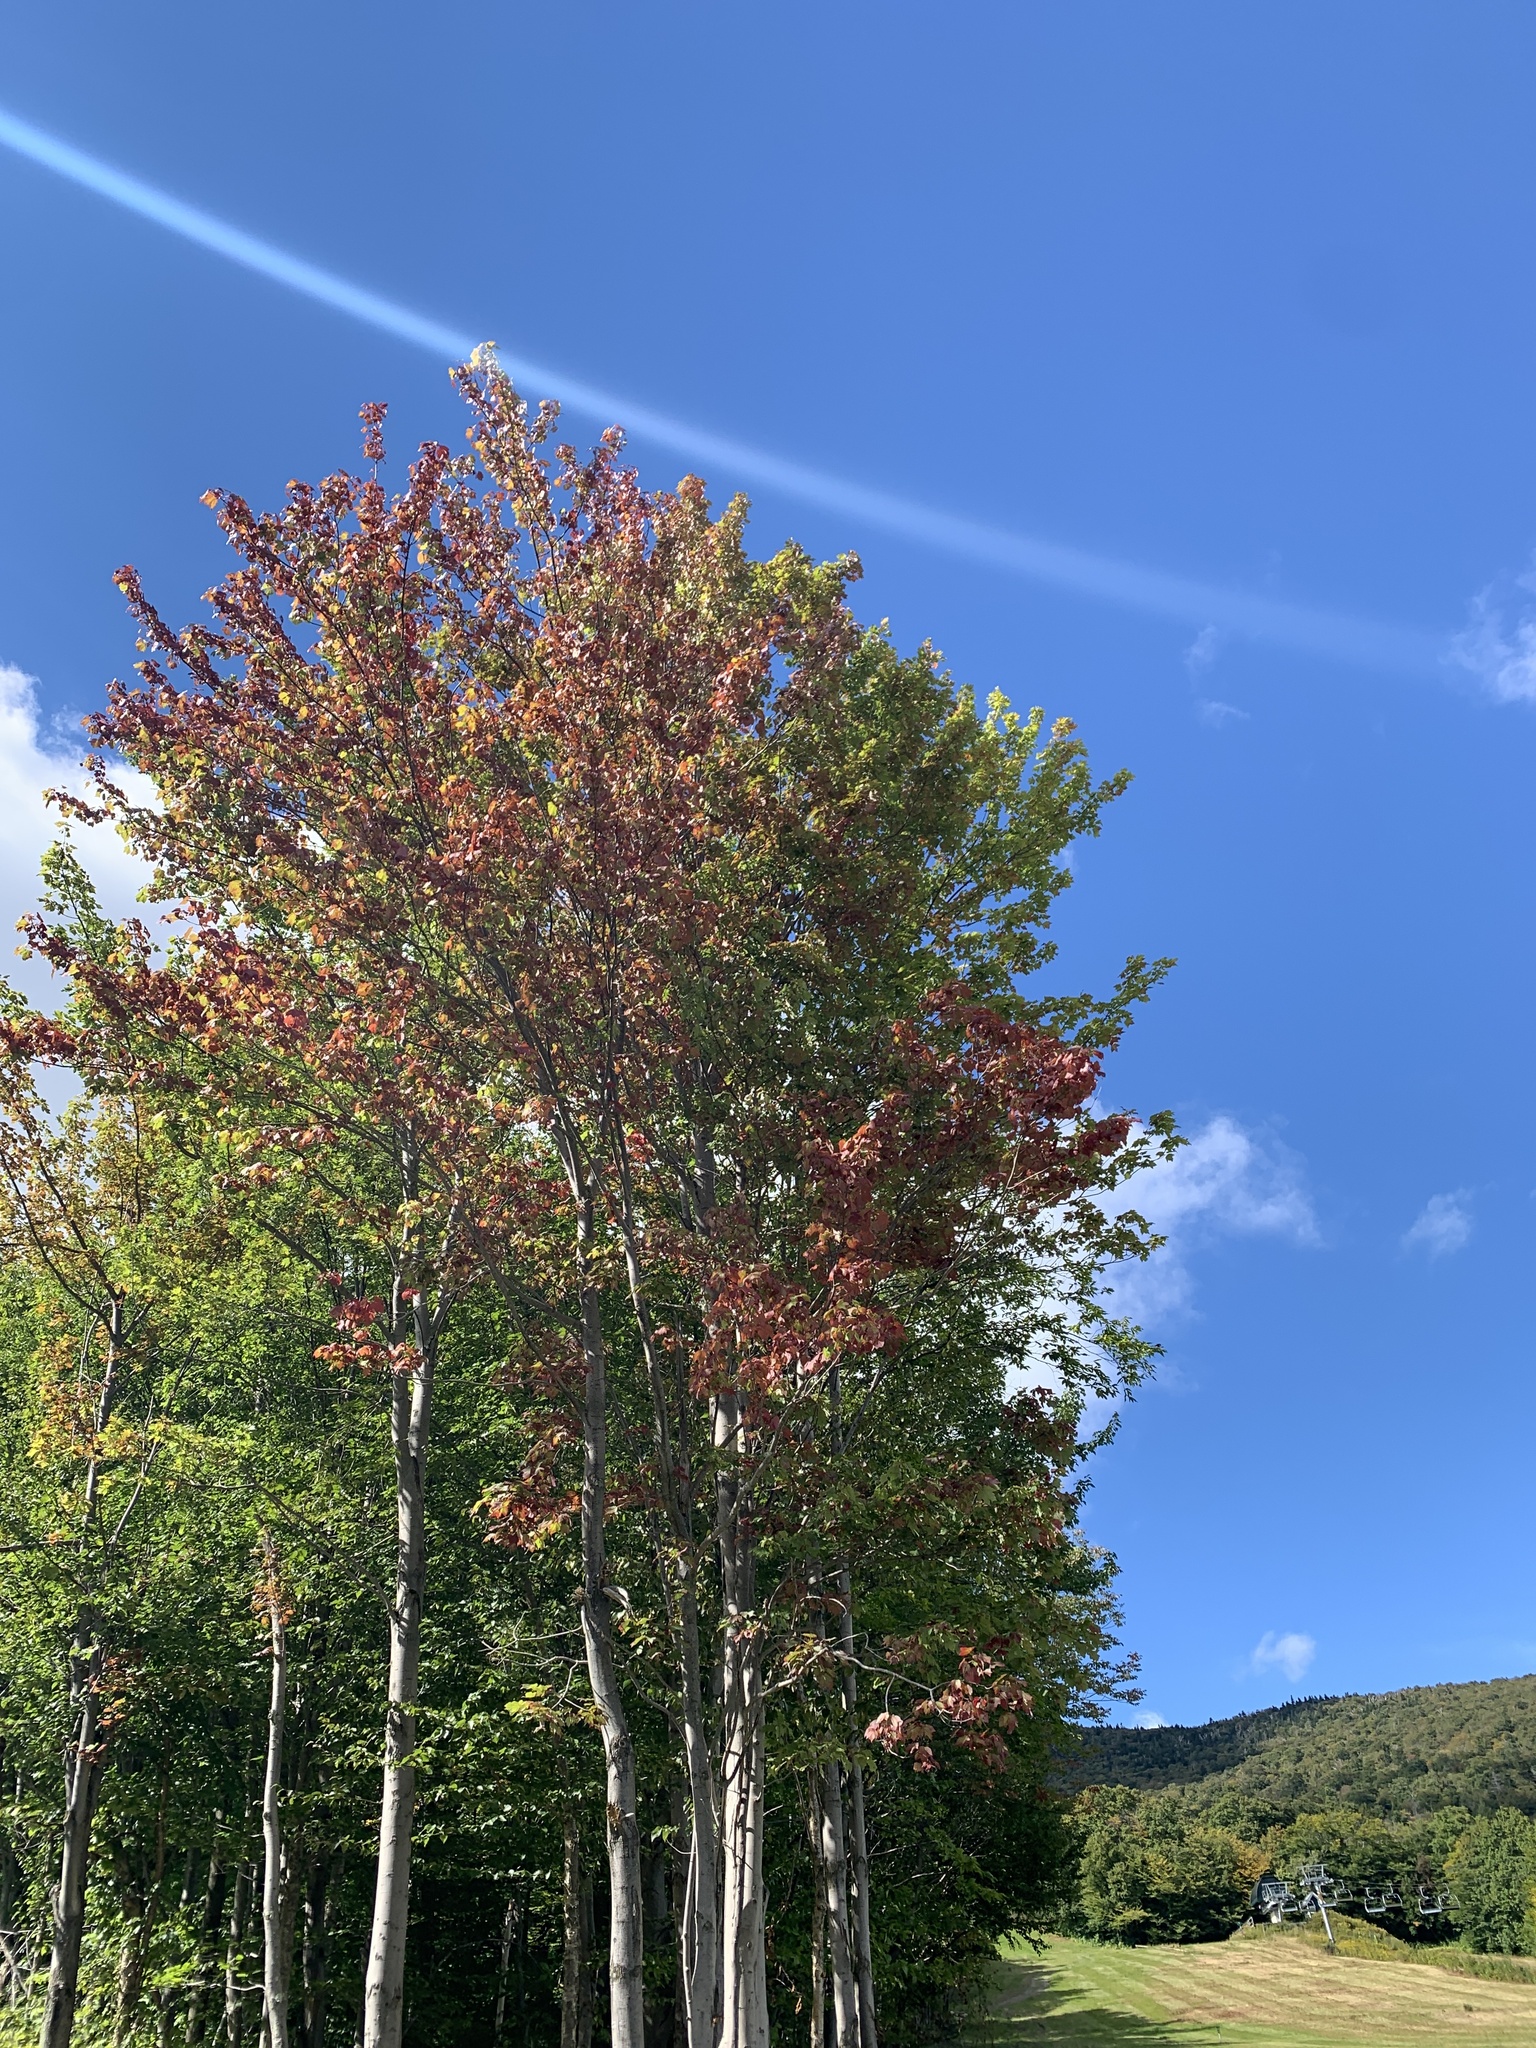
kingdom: Plantae
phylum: Tracheophyta
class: Magnoliopsida
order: Sapindales
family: Sapindaceae
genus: Acer
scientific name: Acer rubrum
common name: Red maple
